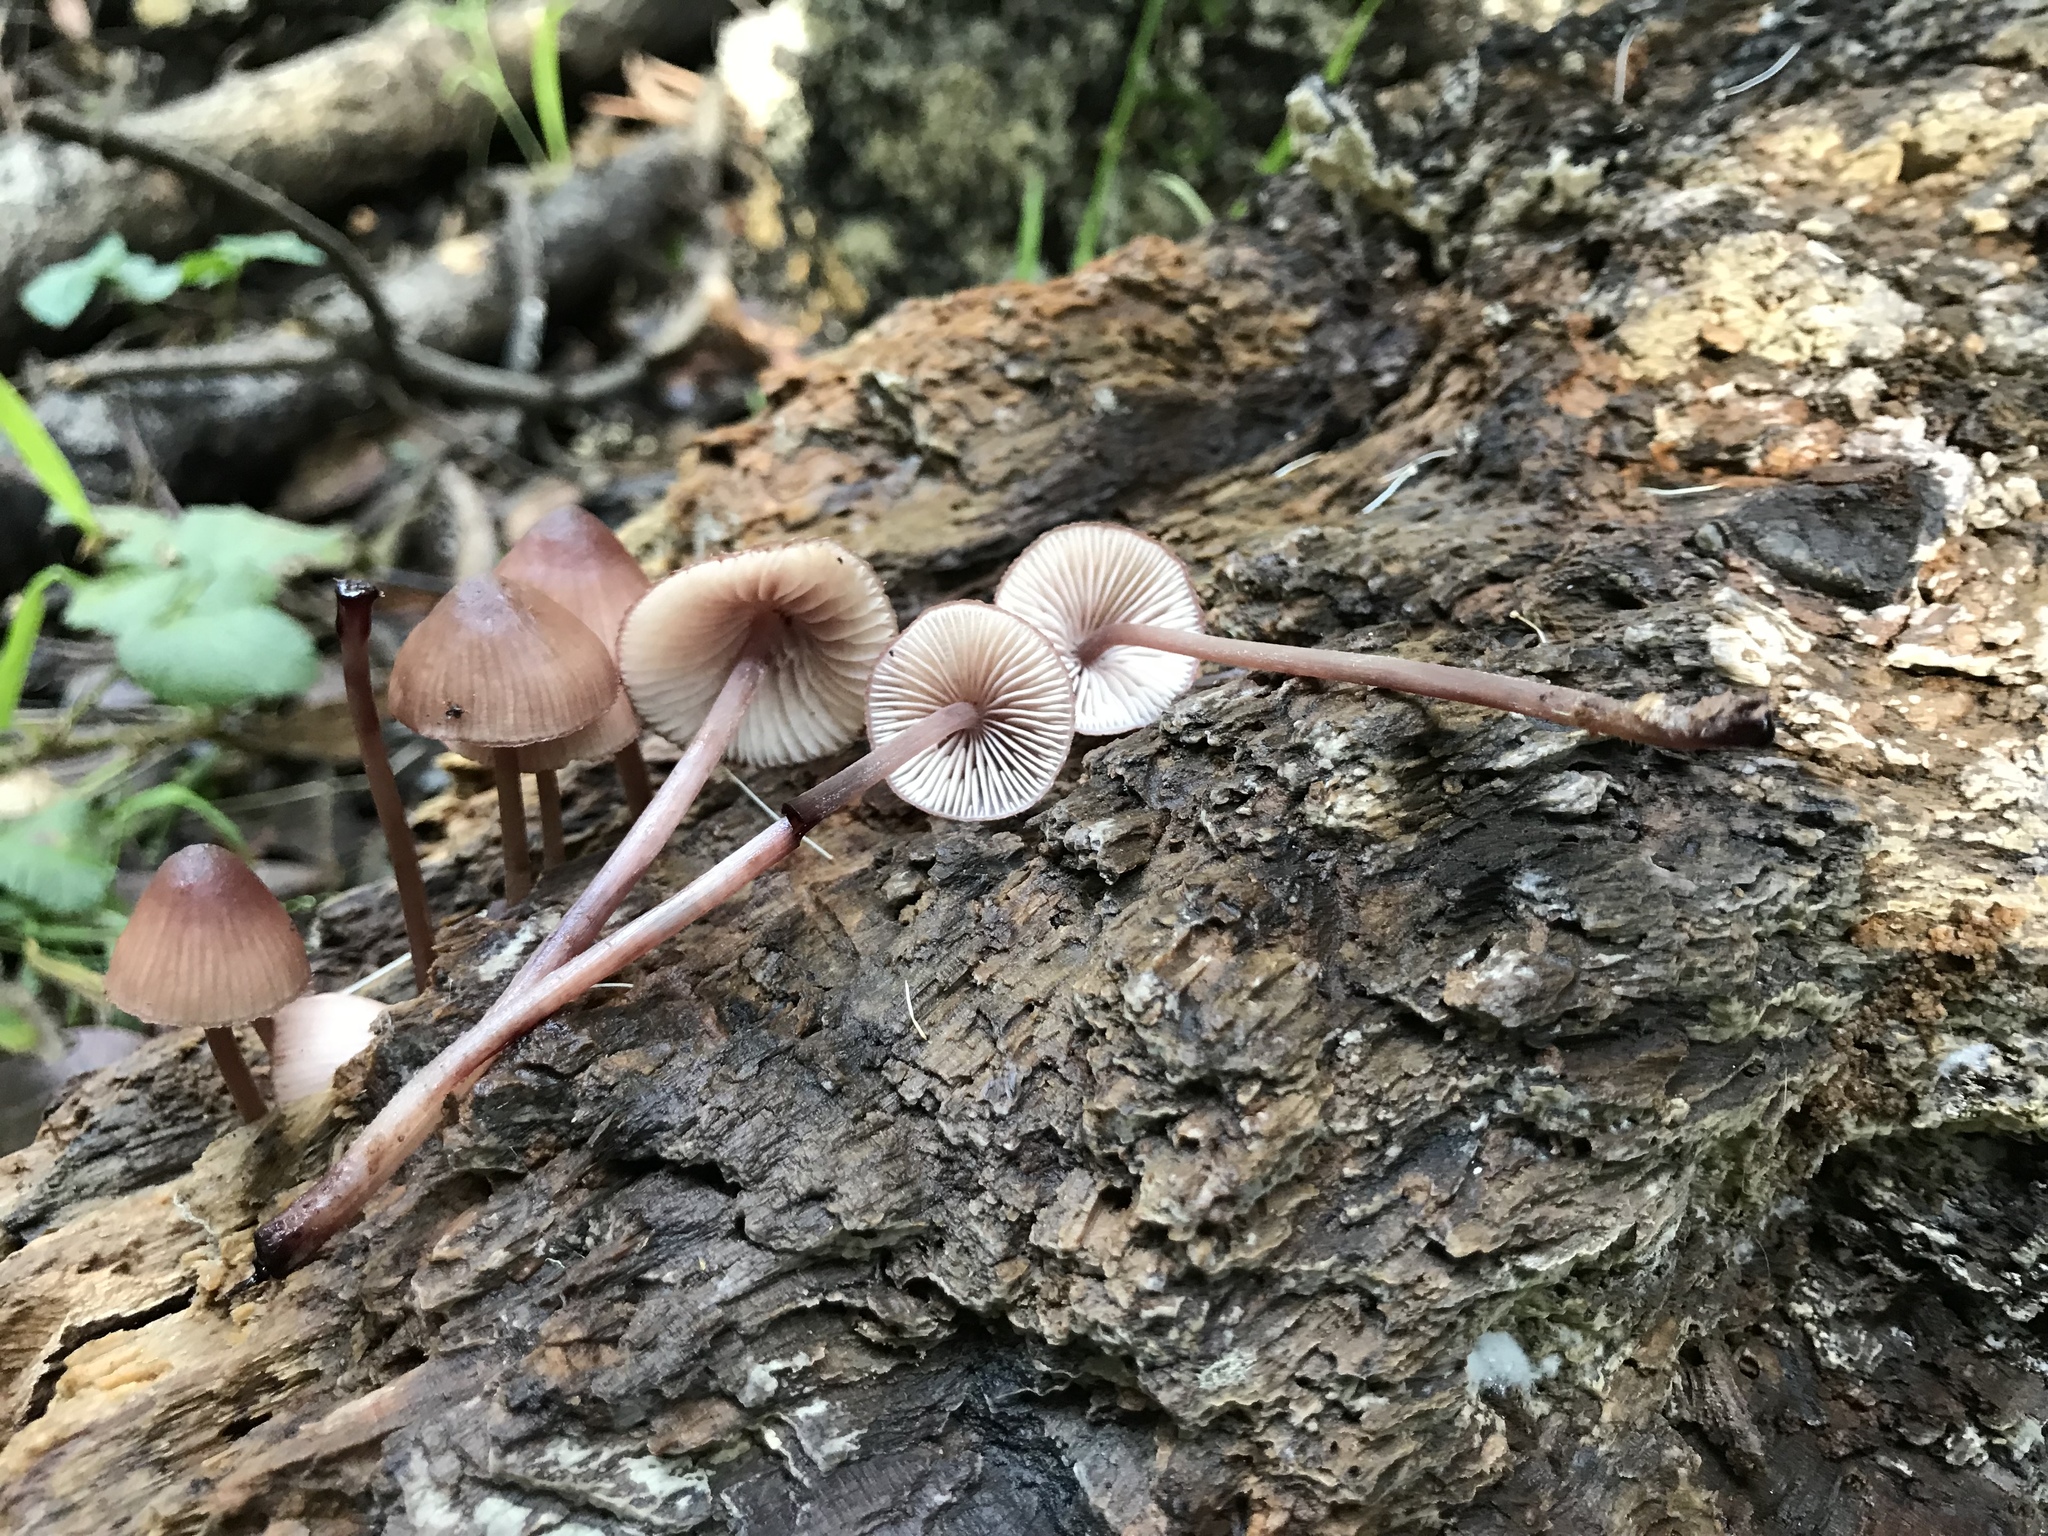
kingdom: Fungi
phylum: Basidiomycota
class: Agaricomycetes
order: Agaricales
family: Mycenaceae
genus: Mycena
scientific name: Mycena haematopus
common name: Burgundydrop bonnet
